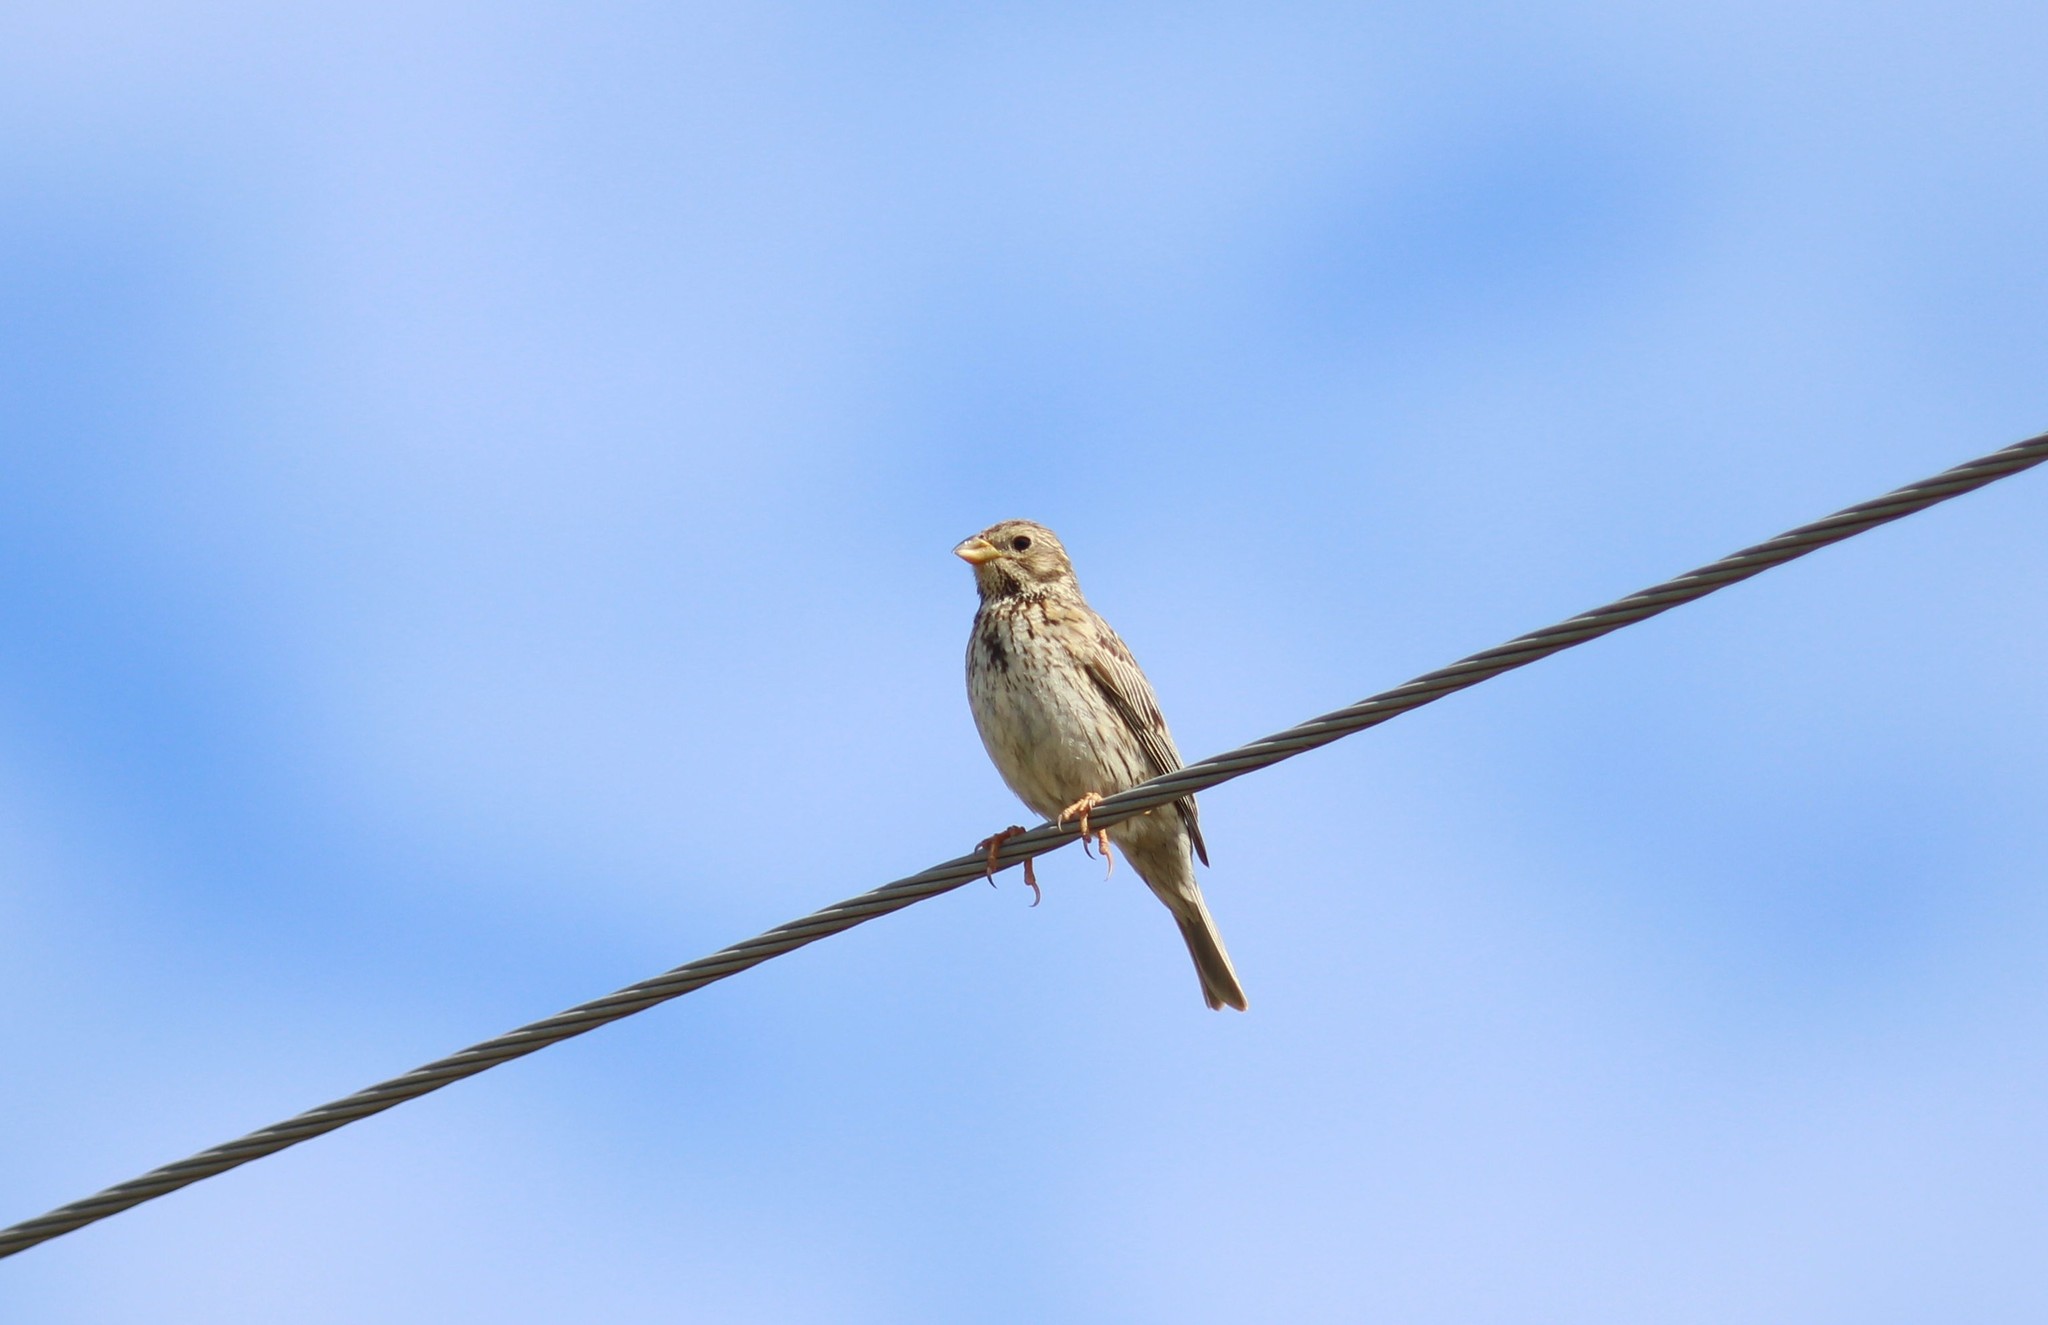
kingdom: Animalia
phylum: Chordata
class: Aves
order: Passeriformes
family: Emberizidae
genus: Emberiza
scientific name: Emberiza calandra
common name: Corn bunting
